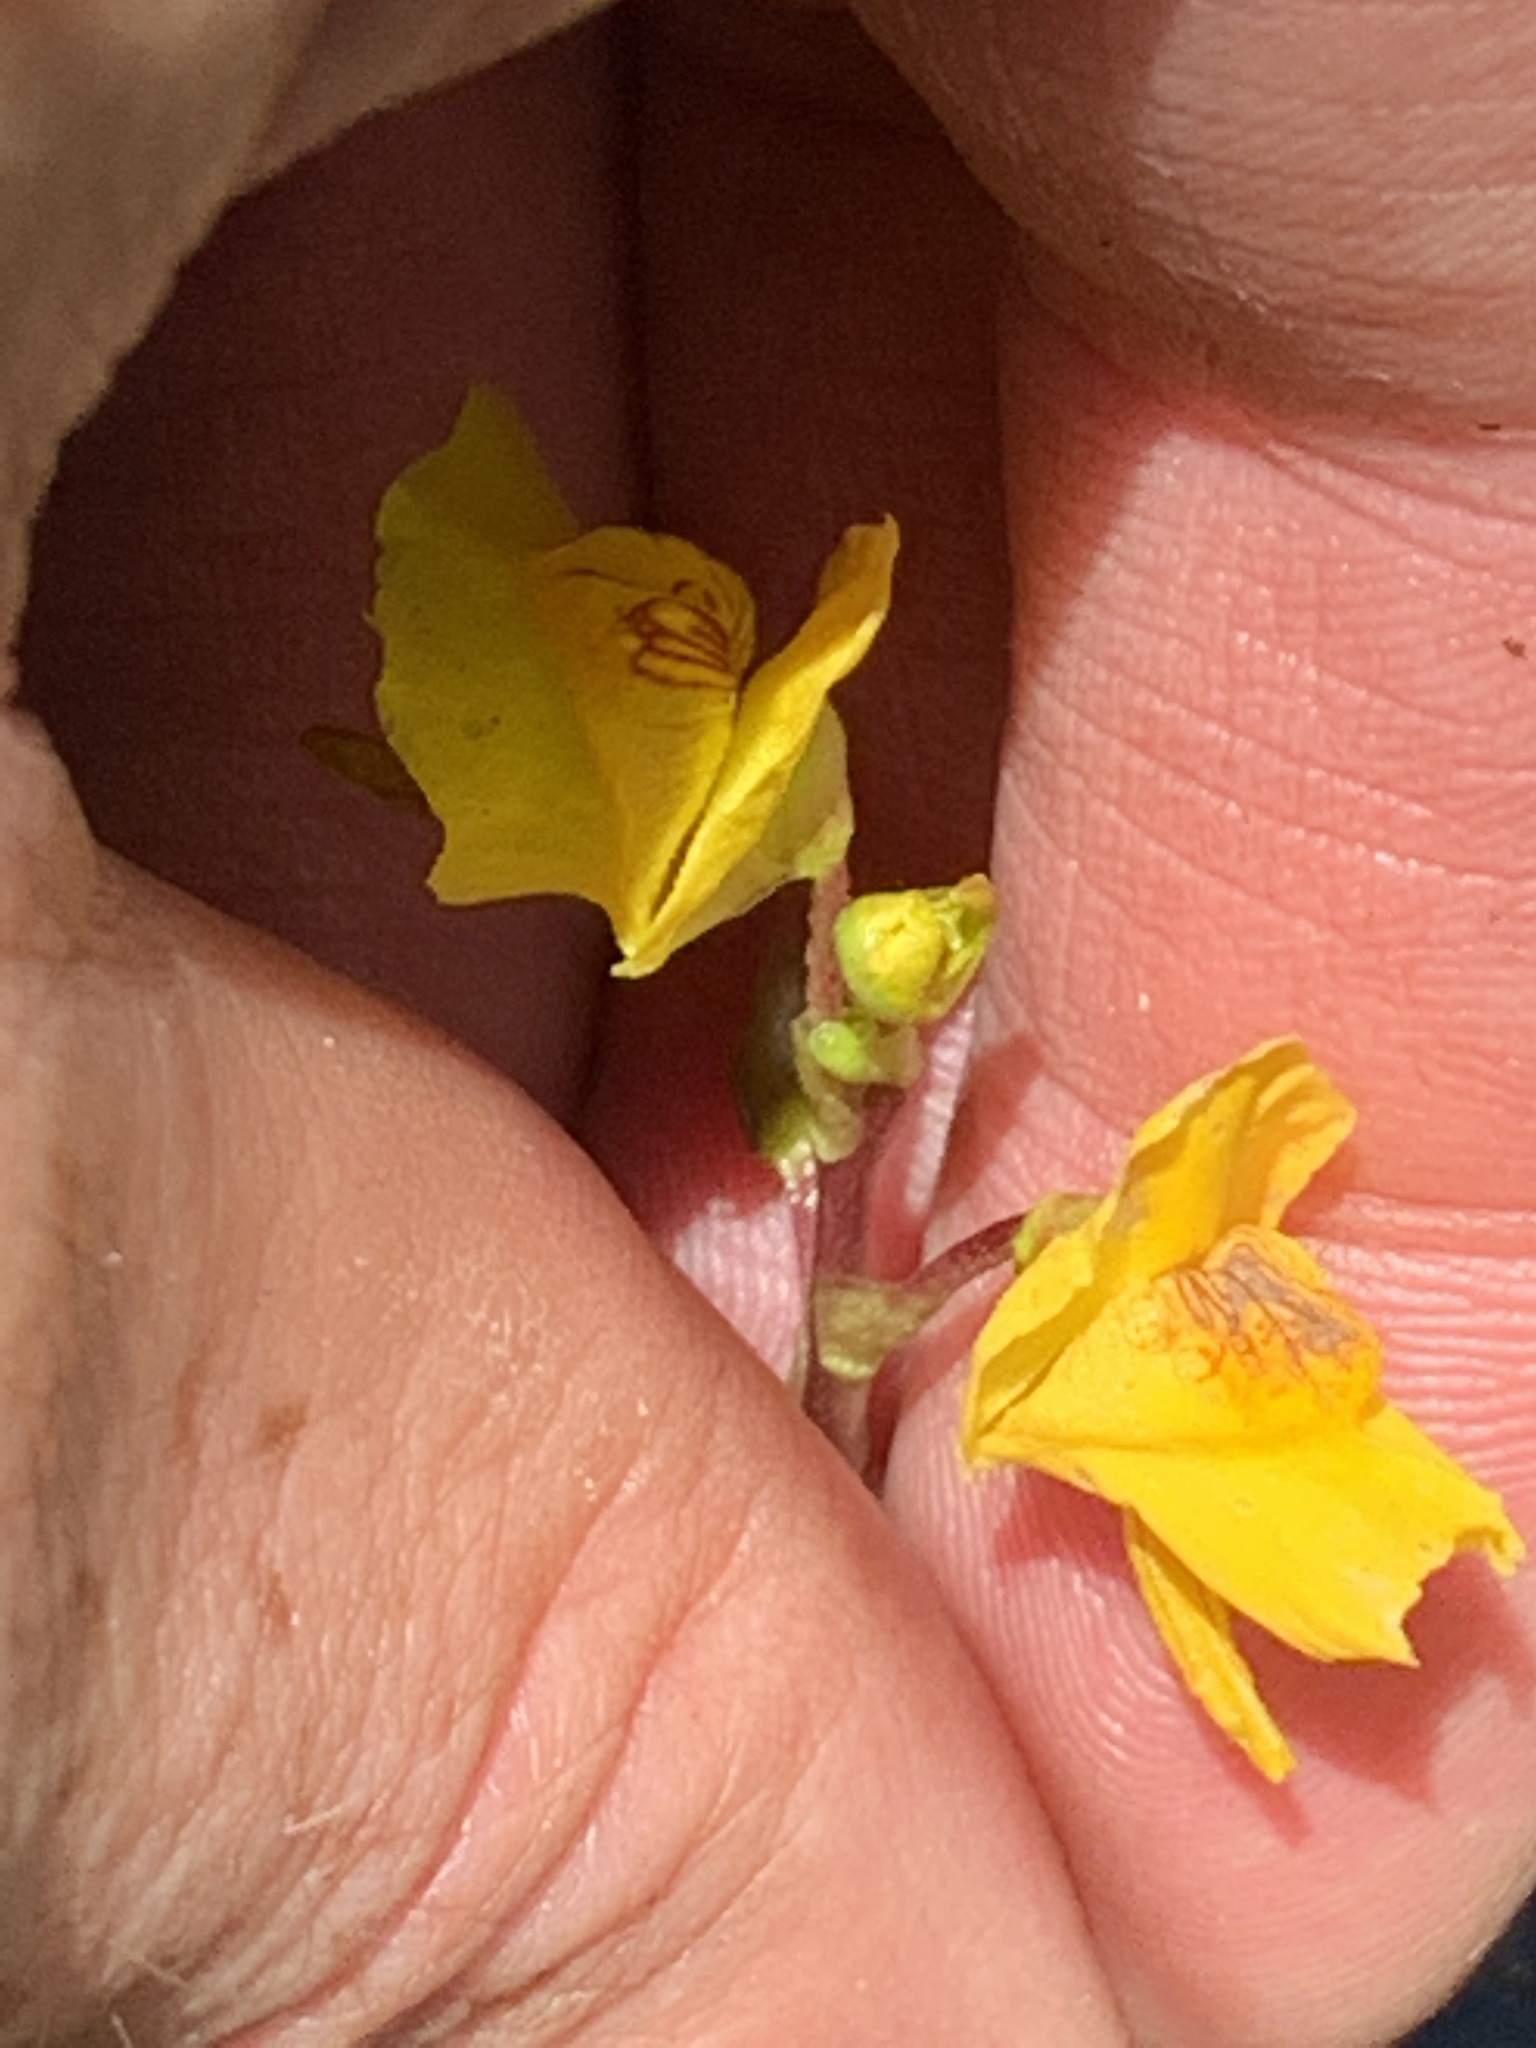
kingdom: Plantae
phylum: Tracheophyta
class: Magnoliopsida
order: Lamiales
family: Lentibulariaceae
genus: Utricularia
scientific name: Utricularia macrorhiza
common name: Common bladderwort
